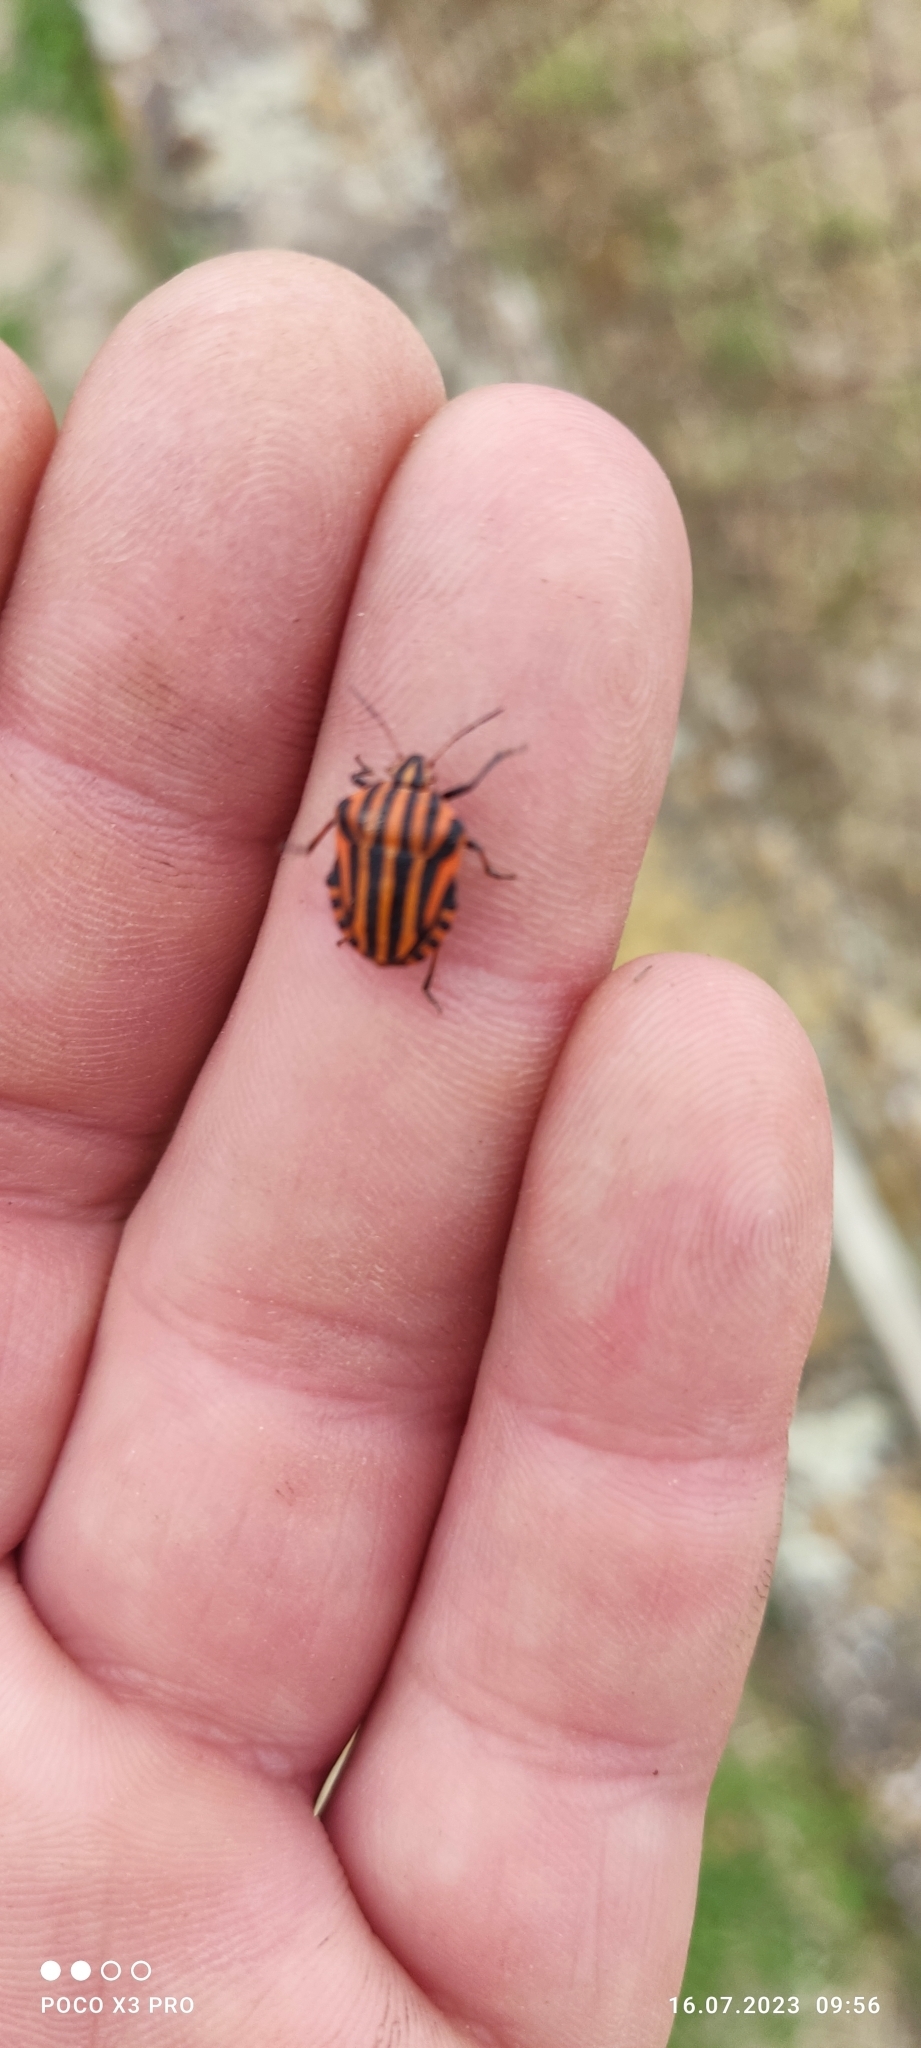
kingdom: Animalia
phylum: Arthropoda
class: Insecta
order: Hemiptera
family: Pentatomidae
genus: Graphosoma
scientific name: Graphosoma italicum
